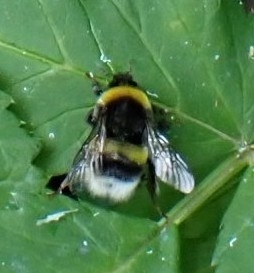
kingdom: Animalia
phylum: Arthropoda
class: Insecta
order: Hymenoptera
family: Apidae
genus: Bombus
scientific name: Bombus
